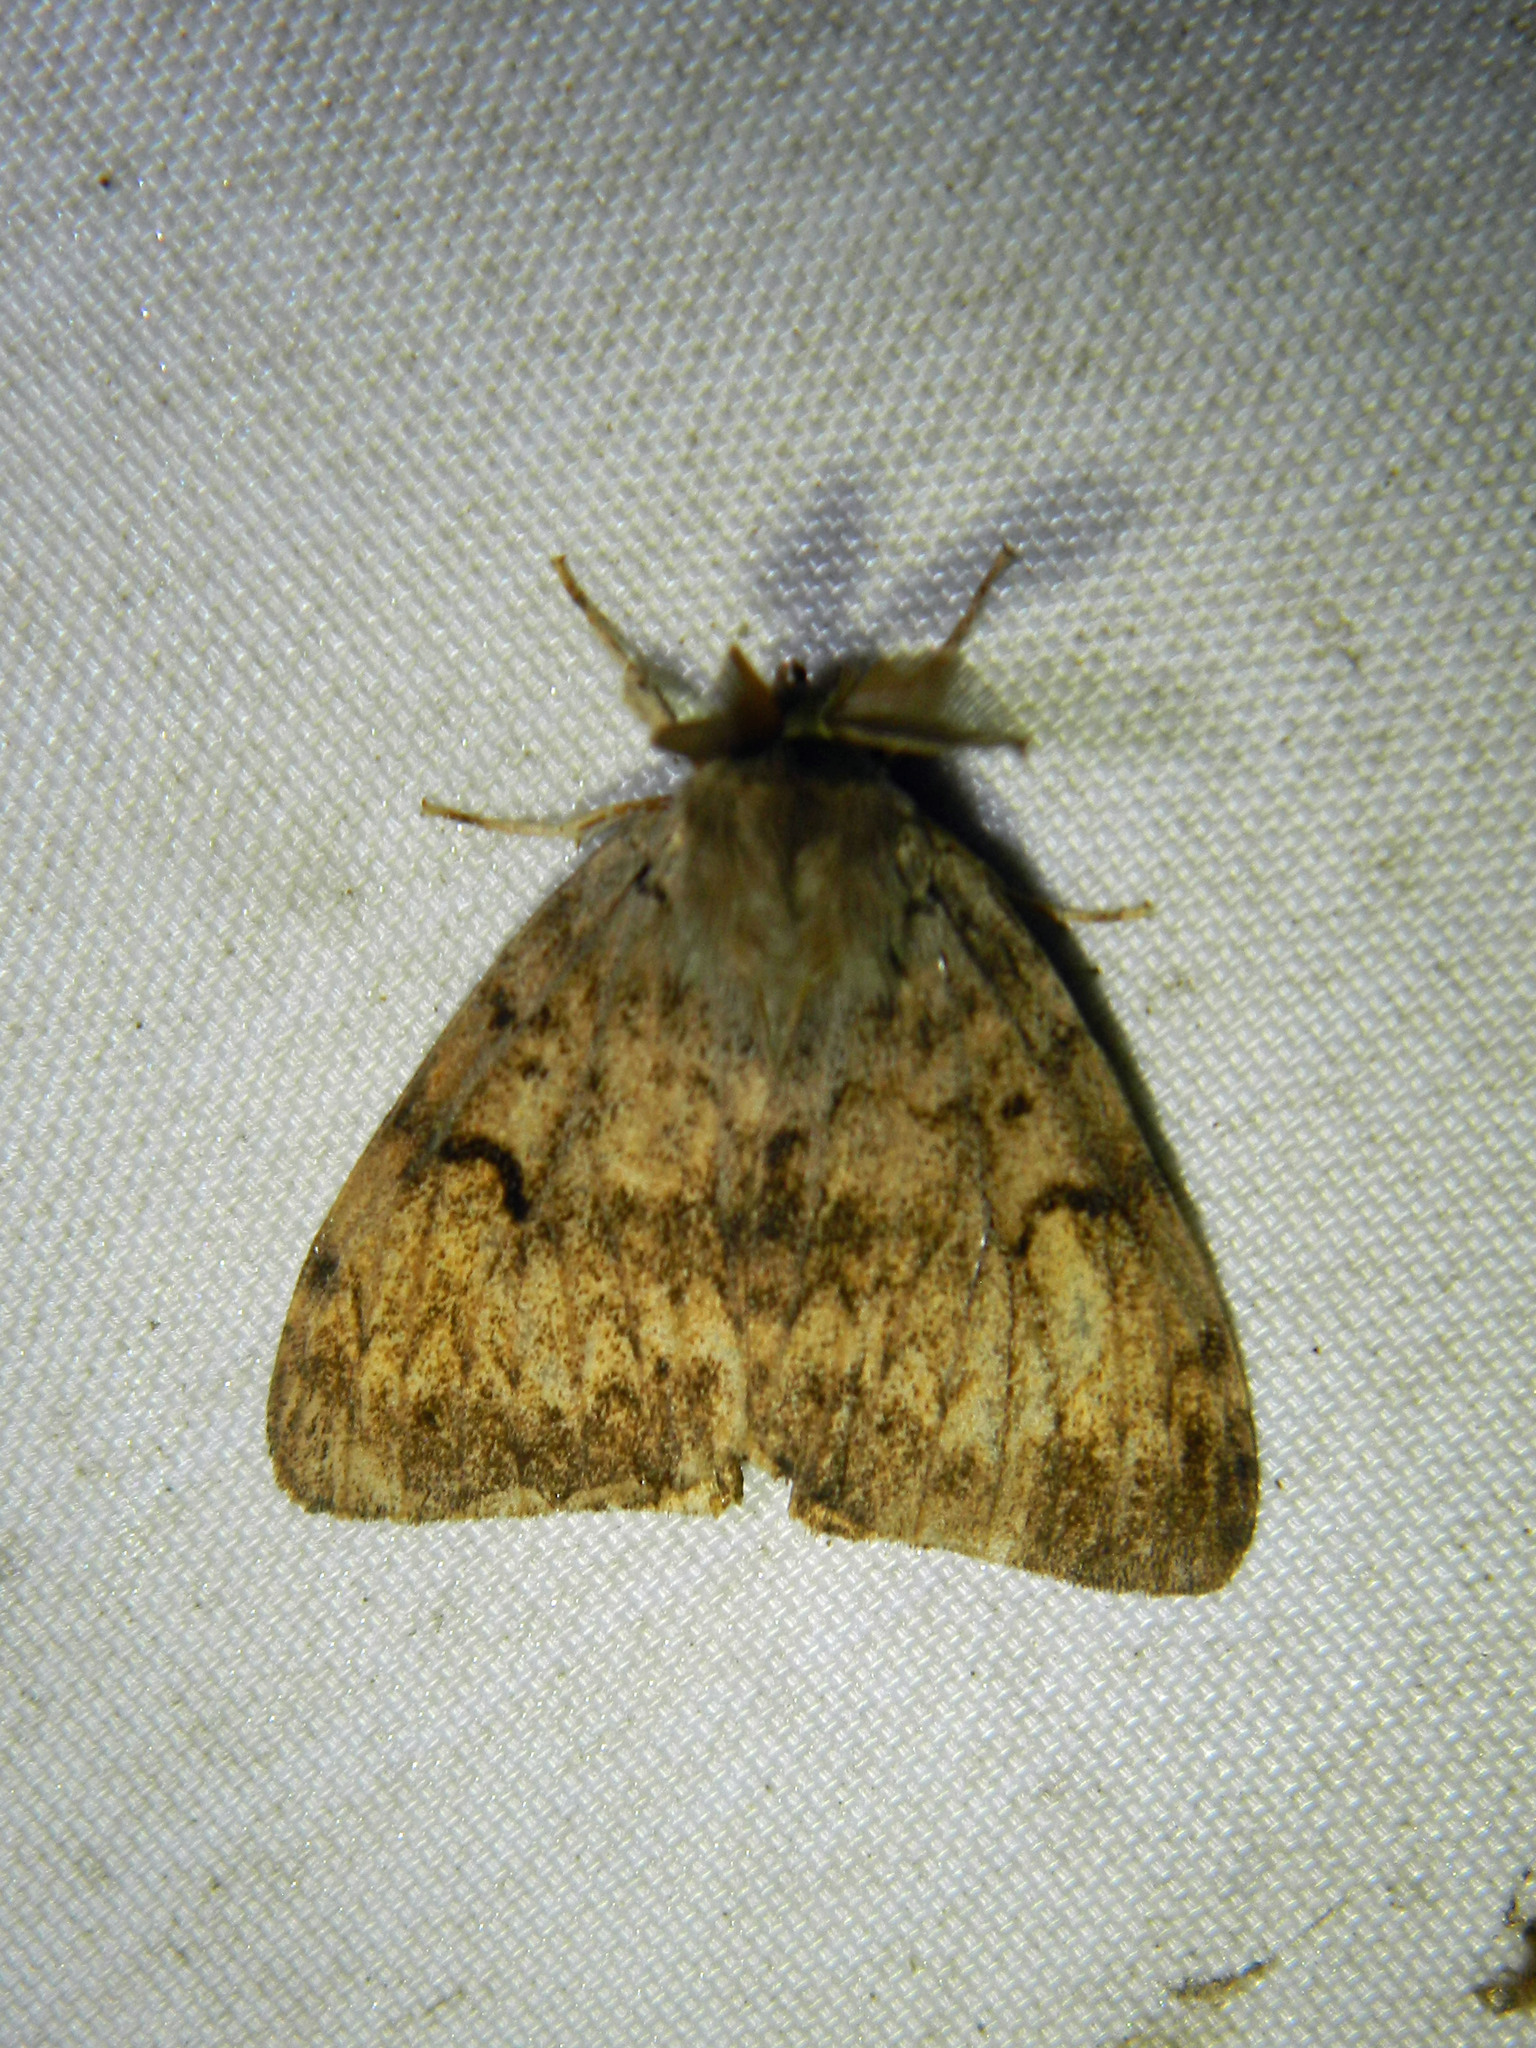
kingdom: Animalia
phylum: Arthropoda
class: Insecta
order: Lepidoptera
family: Erebidae
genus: Lymantria
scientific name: Lymantria dispar
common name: Gypsy moth
